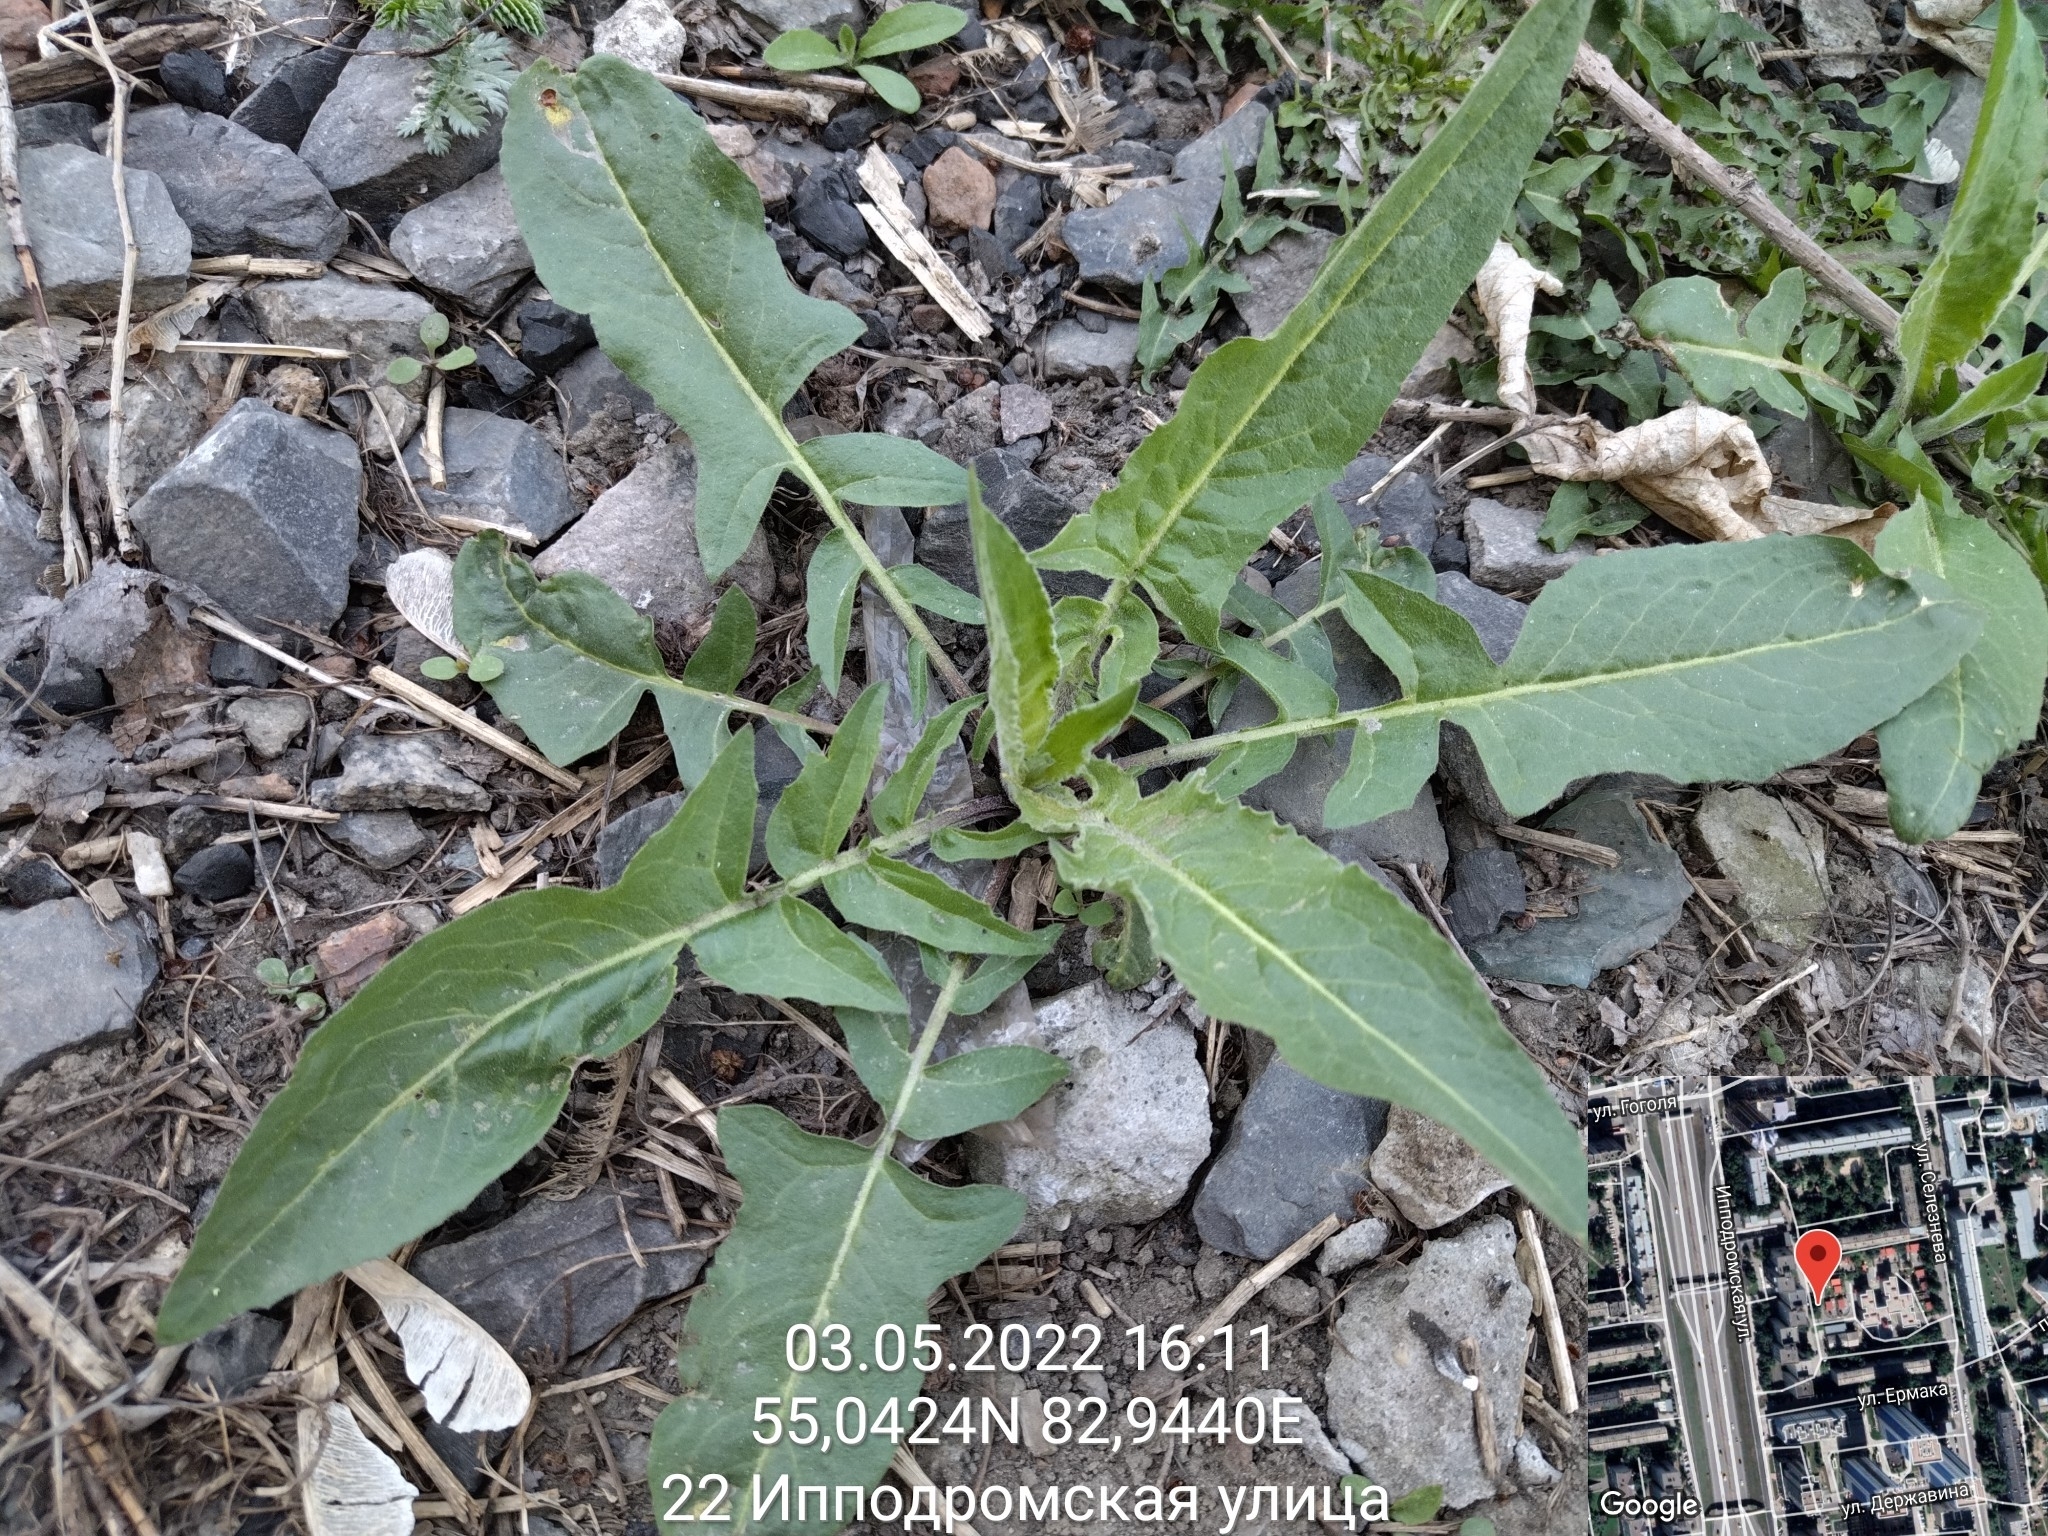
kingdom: Plantae
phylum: Tracheophyta
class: Magnoliopsida
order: Brassicales
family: Brassicaceae
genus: Bunias
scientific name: Bunias orientalis
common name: Warty-cabbage
